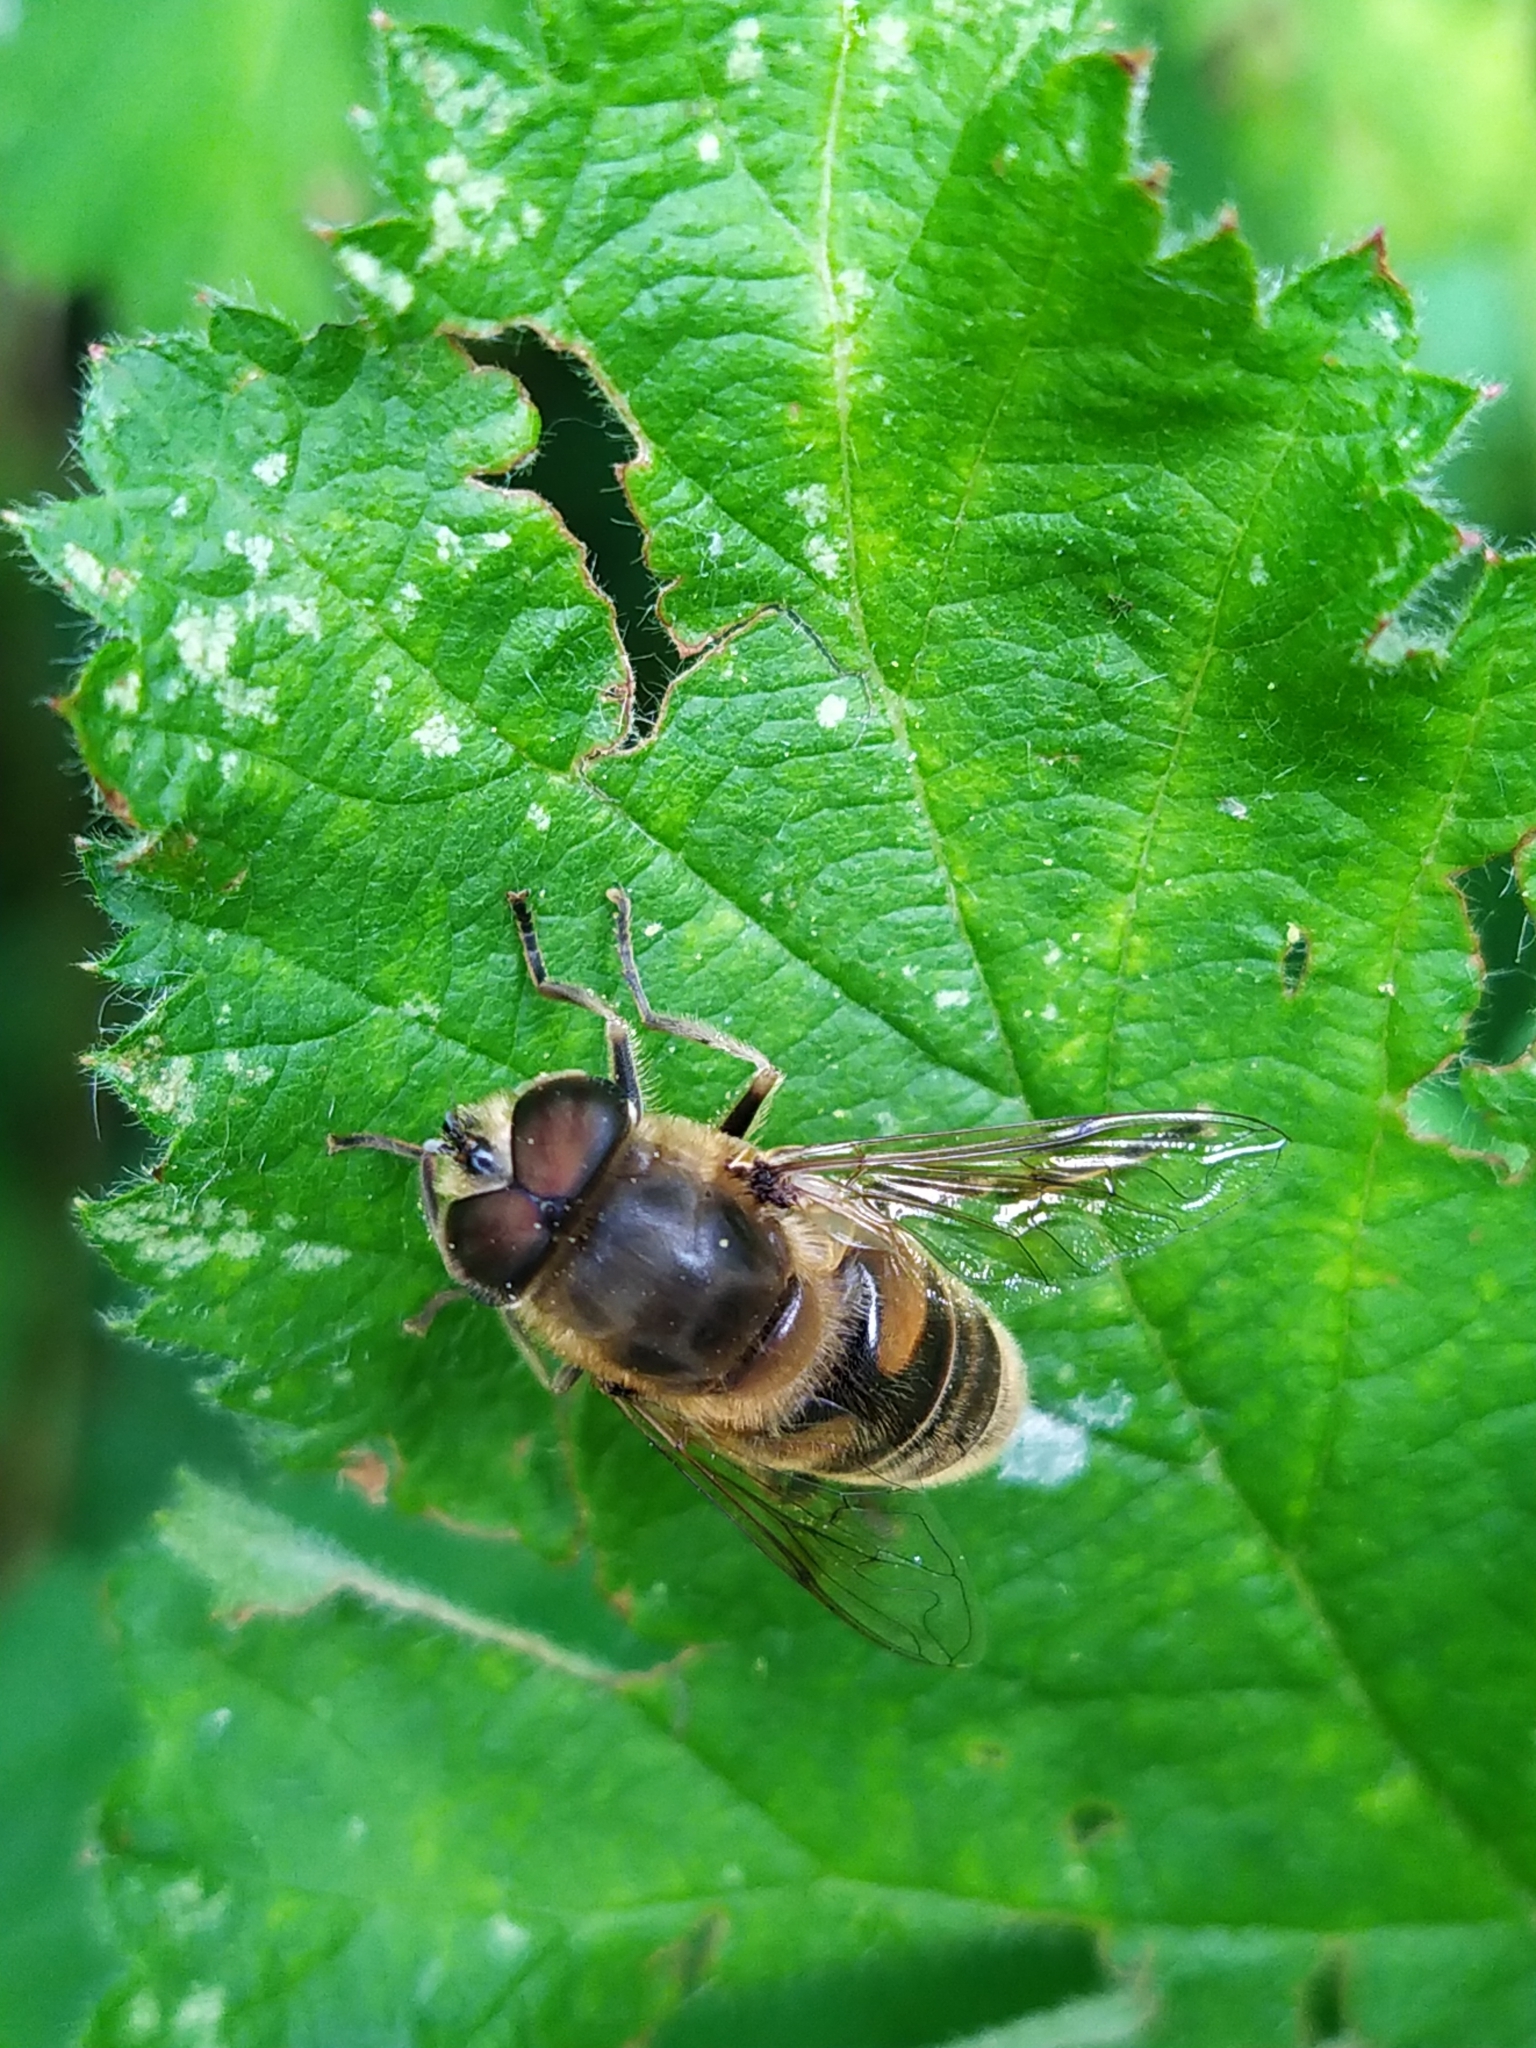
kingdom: Animalia
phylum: Arthropoda
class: Insecta
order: Diptera
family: Syrphidae
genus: Eristalis
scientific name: Eristalis tenax
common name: Drone fly
